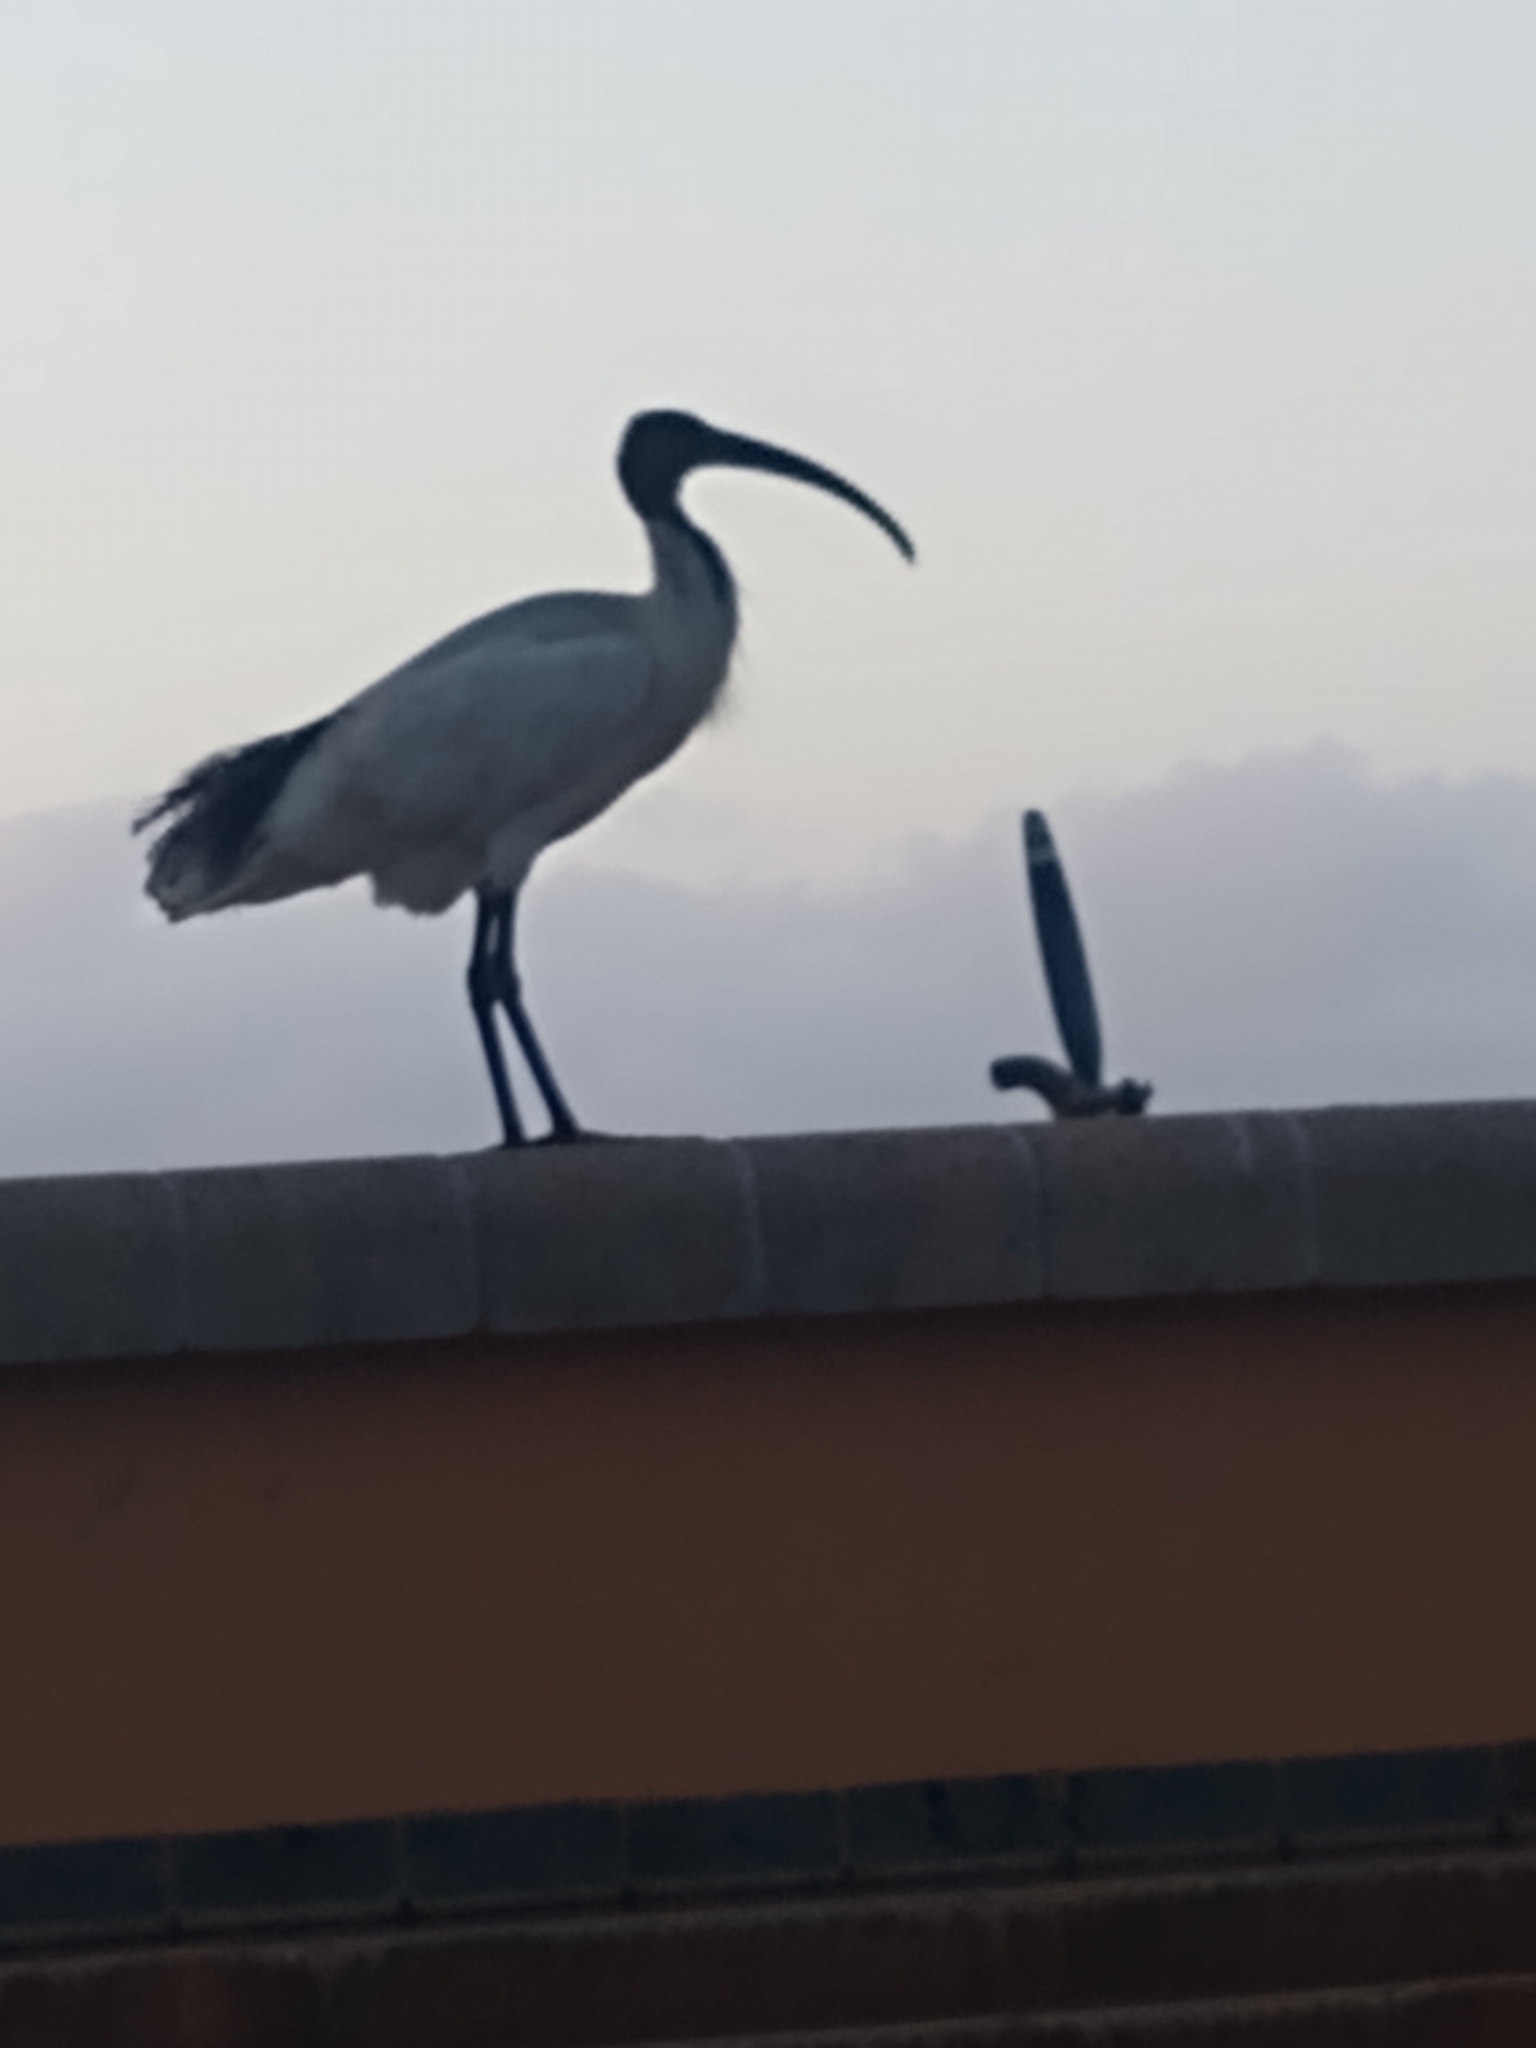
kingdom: Animalia
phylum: Chordata
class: Aves
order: Pelecaniformes
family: Threskiornithidae
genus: Threskiornis
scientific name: Threskiornis molucca
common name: Australian white ibis
